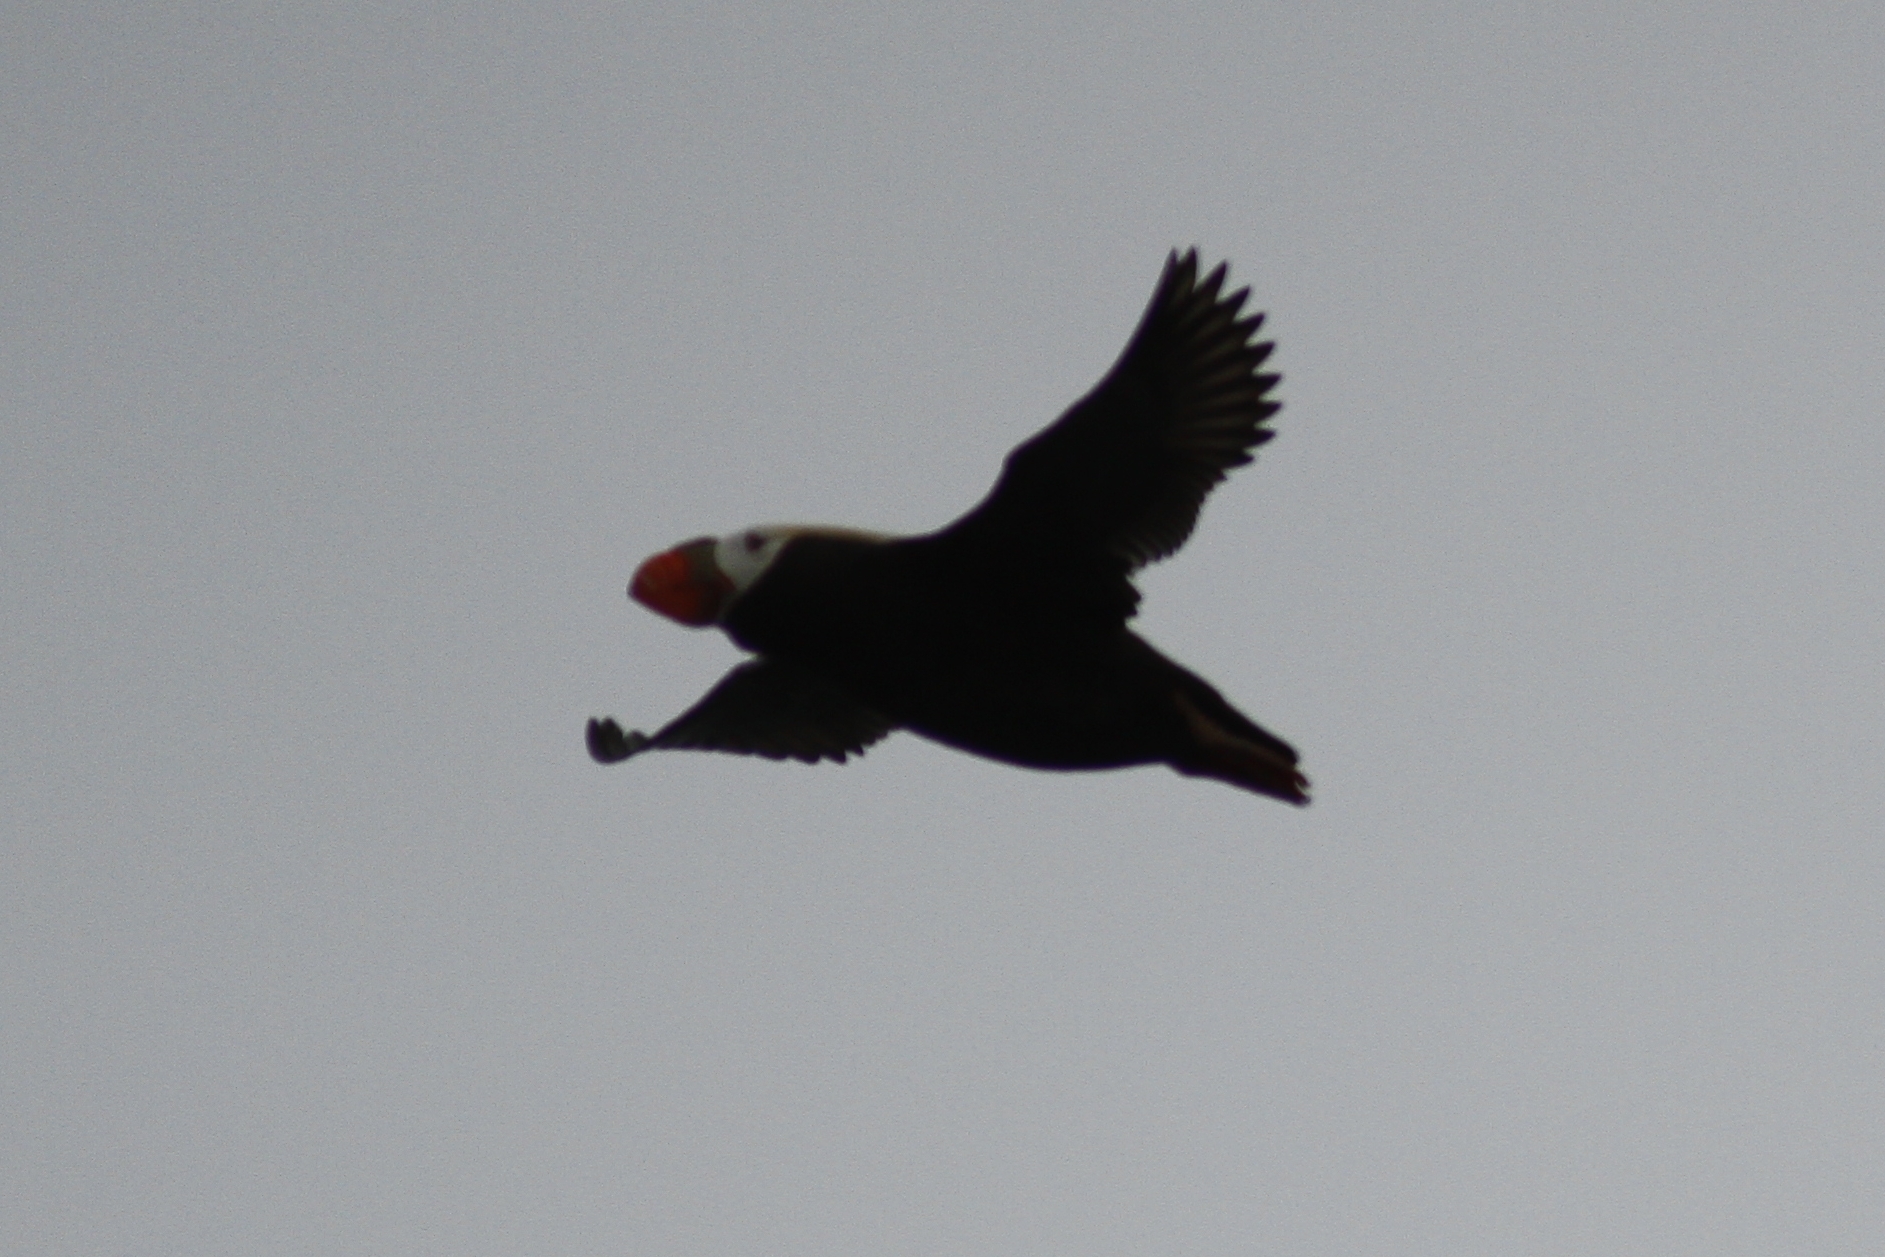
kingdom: Animalia
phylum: Chordata
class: Aves
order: Charadriiformes
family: Alcidae
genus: Fratercula
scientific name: Fratercula cirrhata
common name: Tufted puffin
